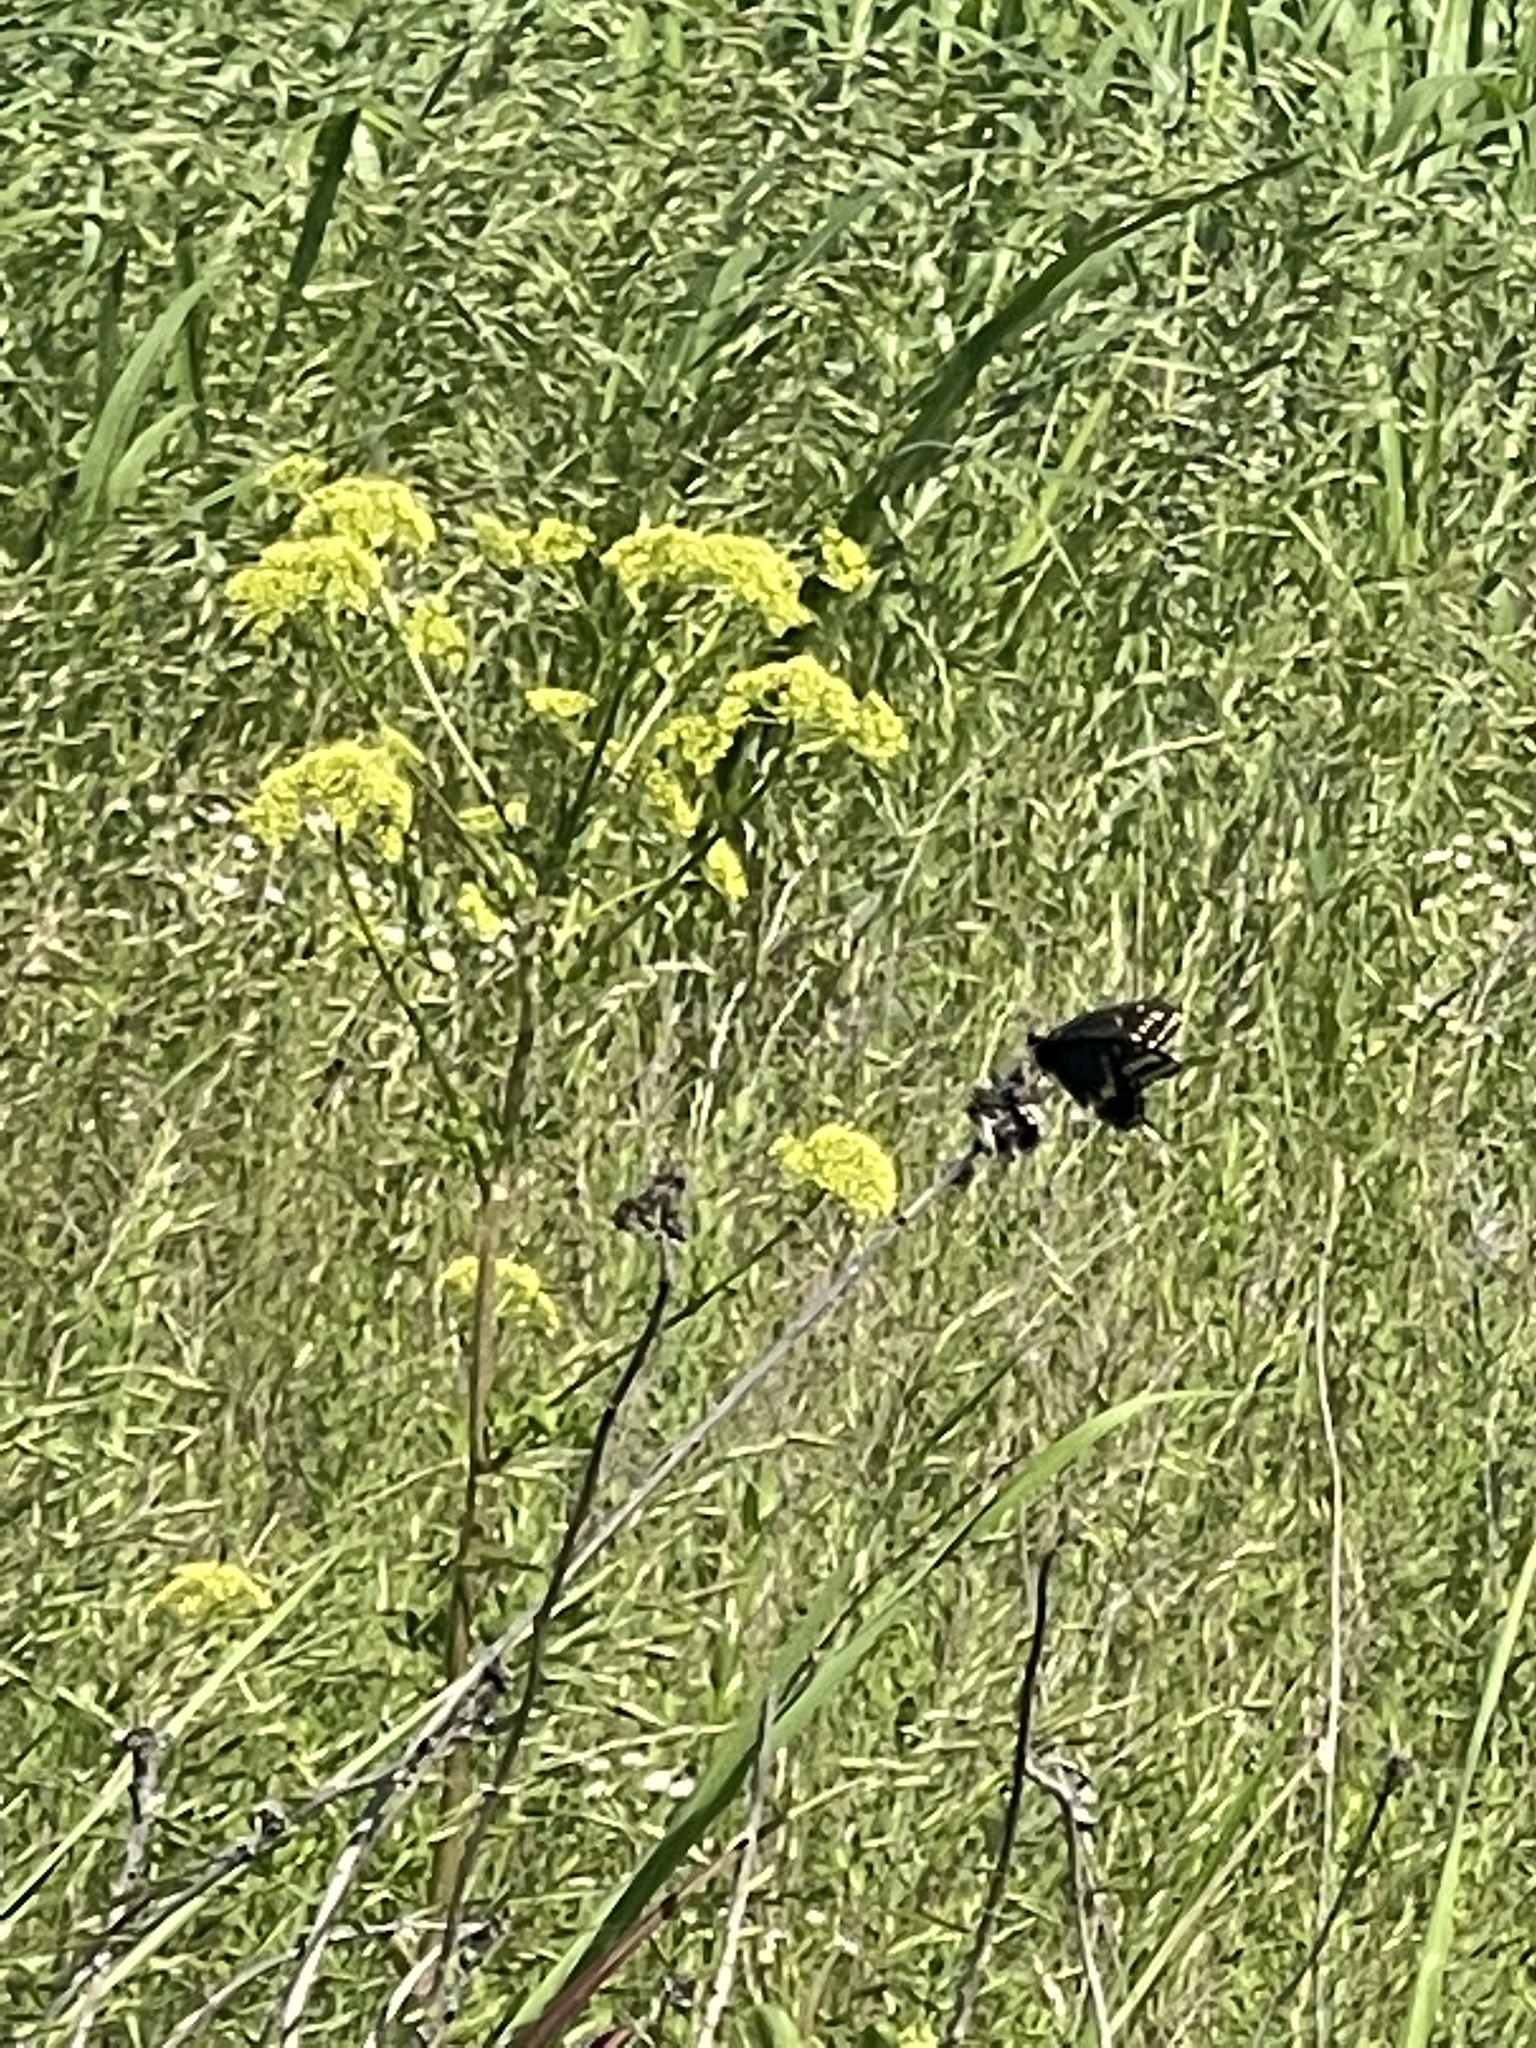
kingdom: Animalia
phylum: Arthropoda
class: Insecta
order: Lepidoptera
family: Papilionidae
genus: Papilio
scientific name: Papilio polyxenes
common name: Black swallowtail
